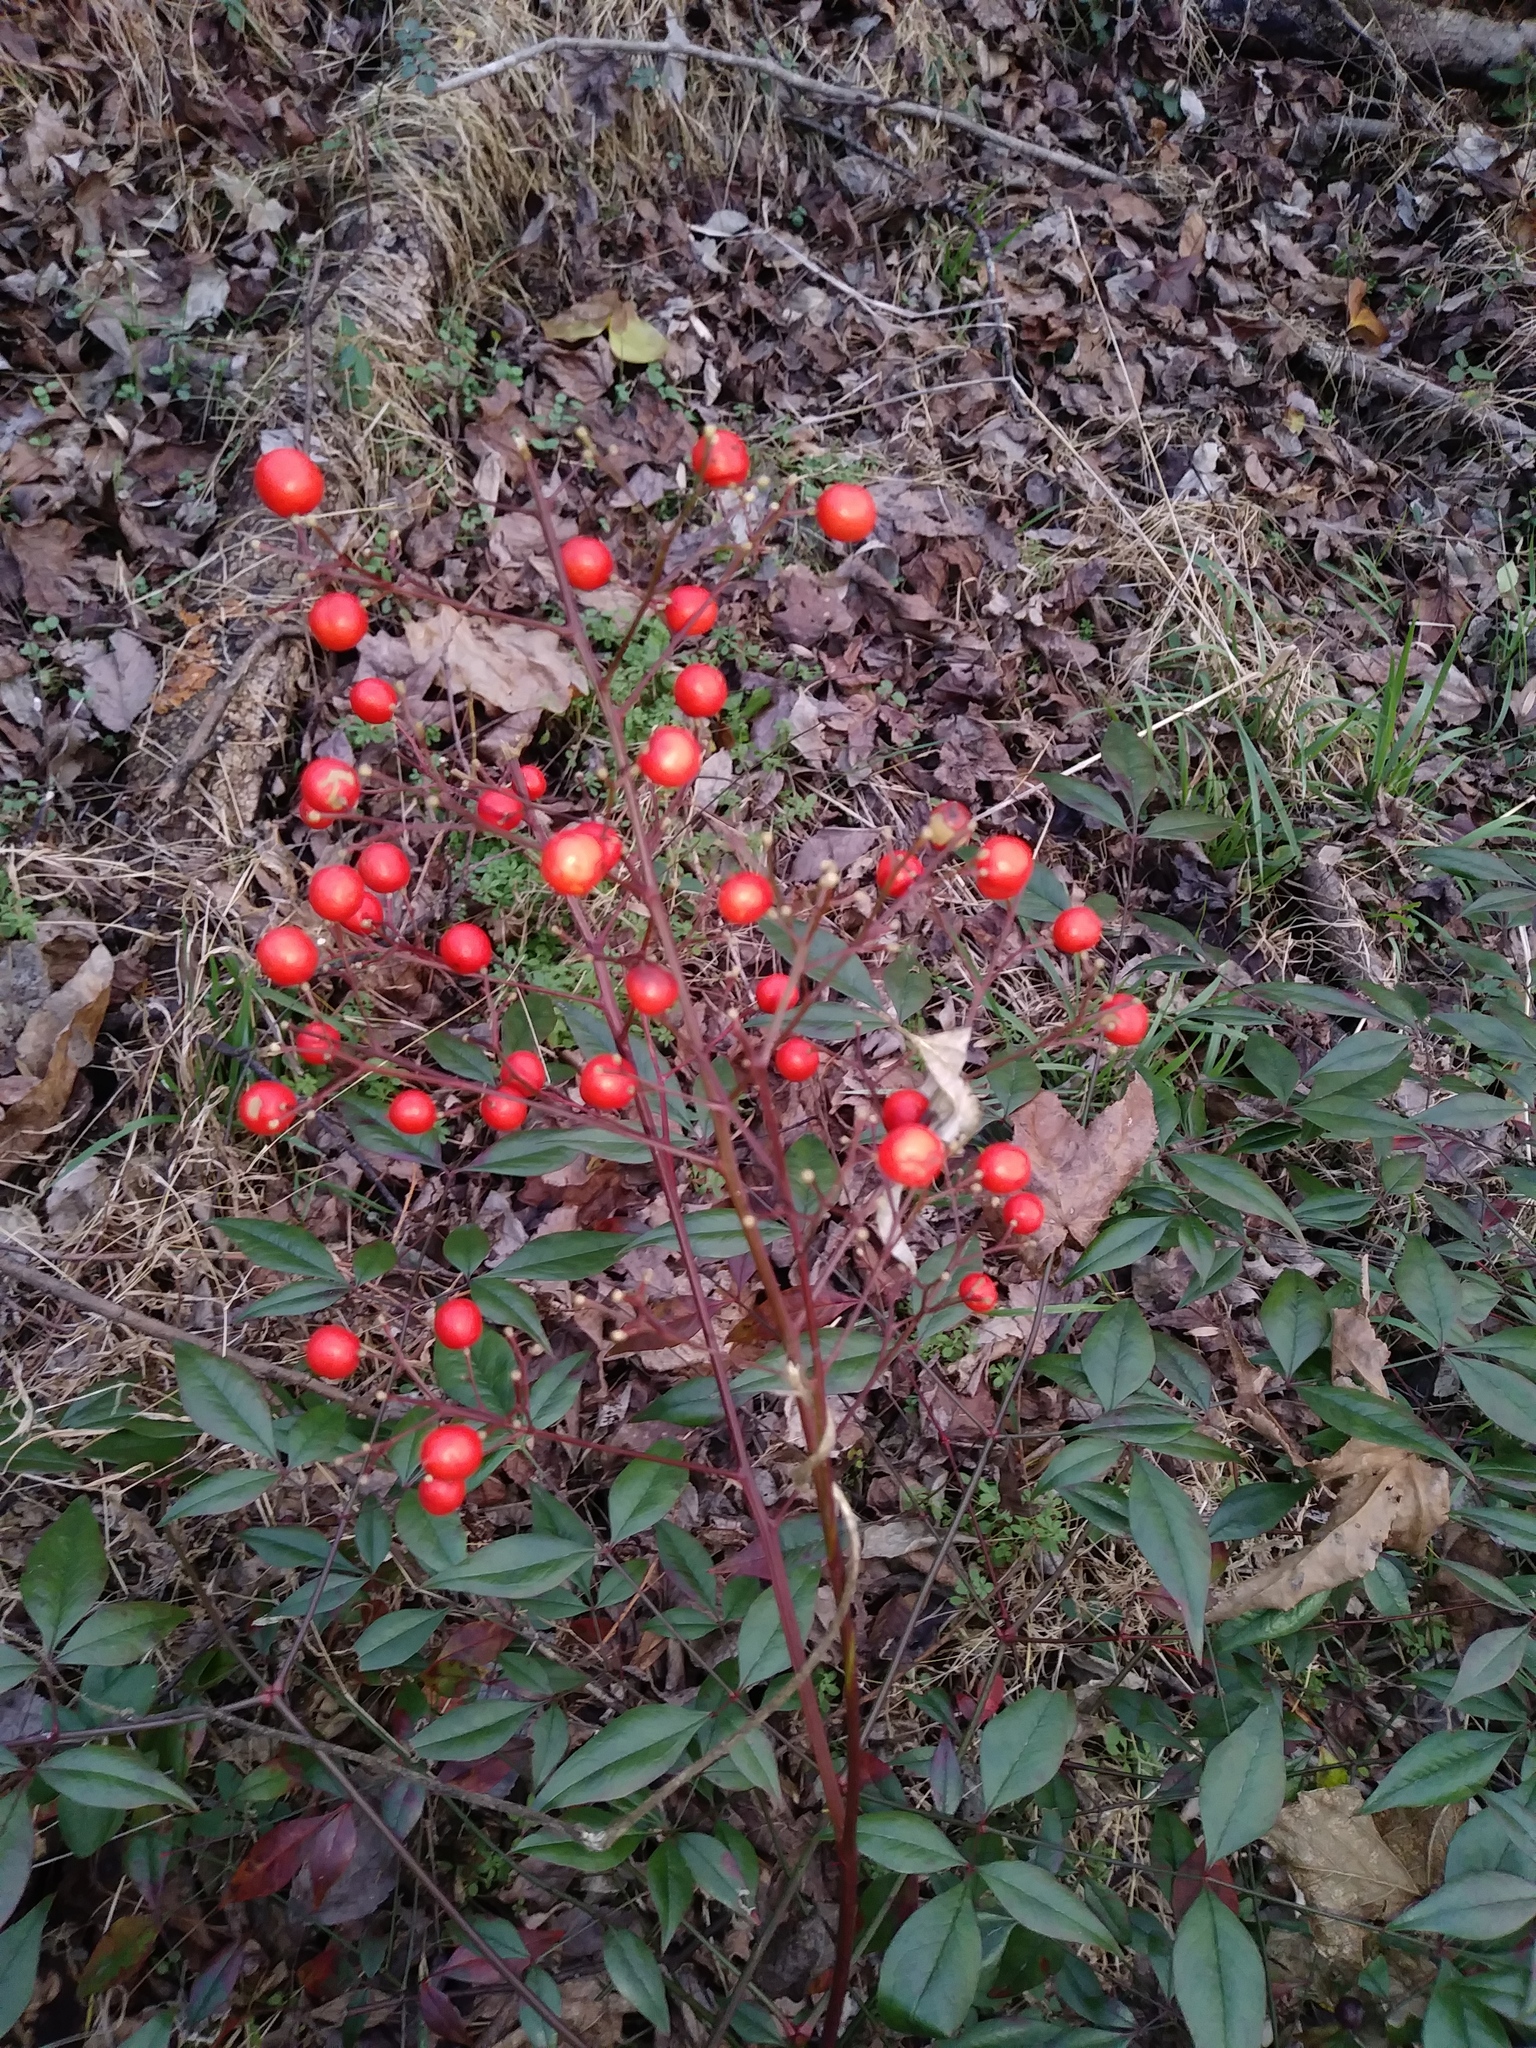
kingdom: Plantae
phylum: Tracheophyta
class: Magnoliopsida
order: Ranunculales
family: Berberidaceae
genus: Nandina
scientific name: Nandina domestica
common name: Sacred bamboo
